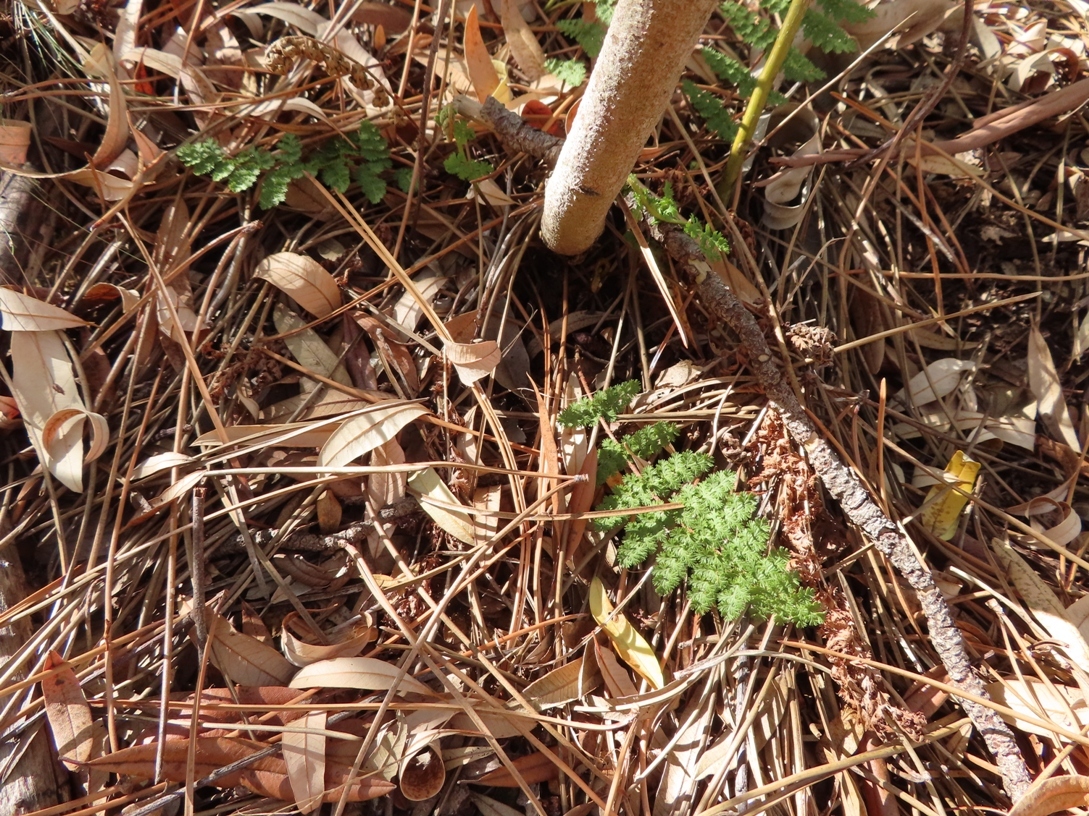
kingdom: Plantae
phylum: Tracheophyta
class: Polypodiopsida
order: Schizaeales
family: Anemiaceae
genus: Anemia
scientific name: Anemia caffrorum
